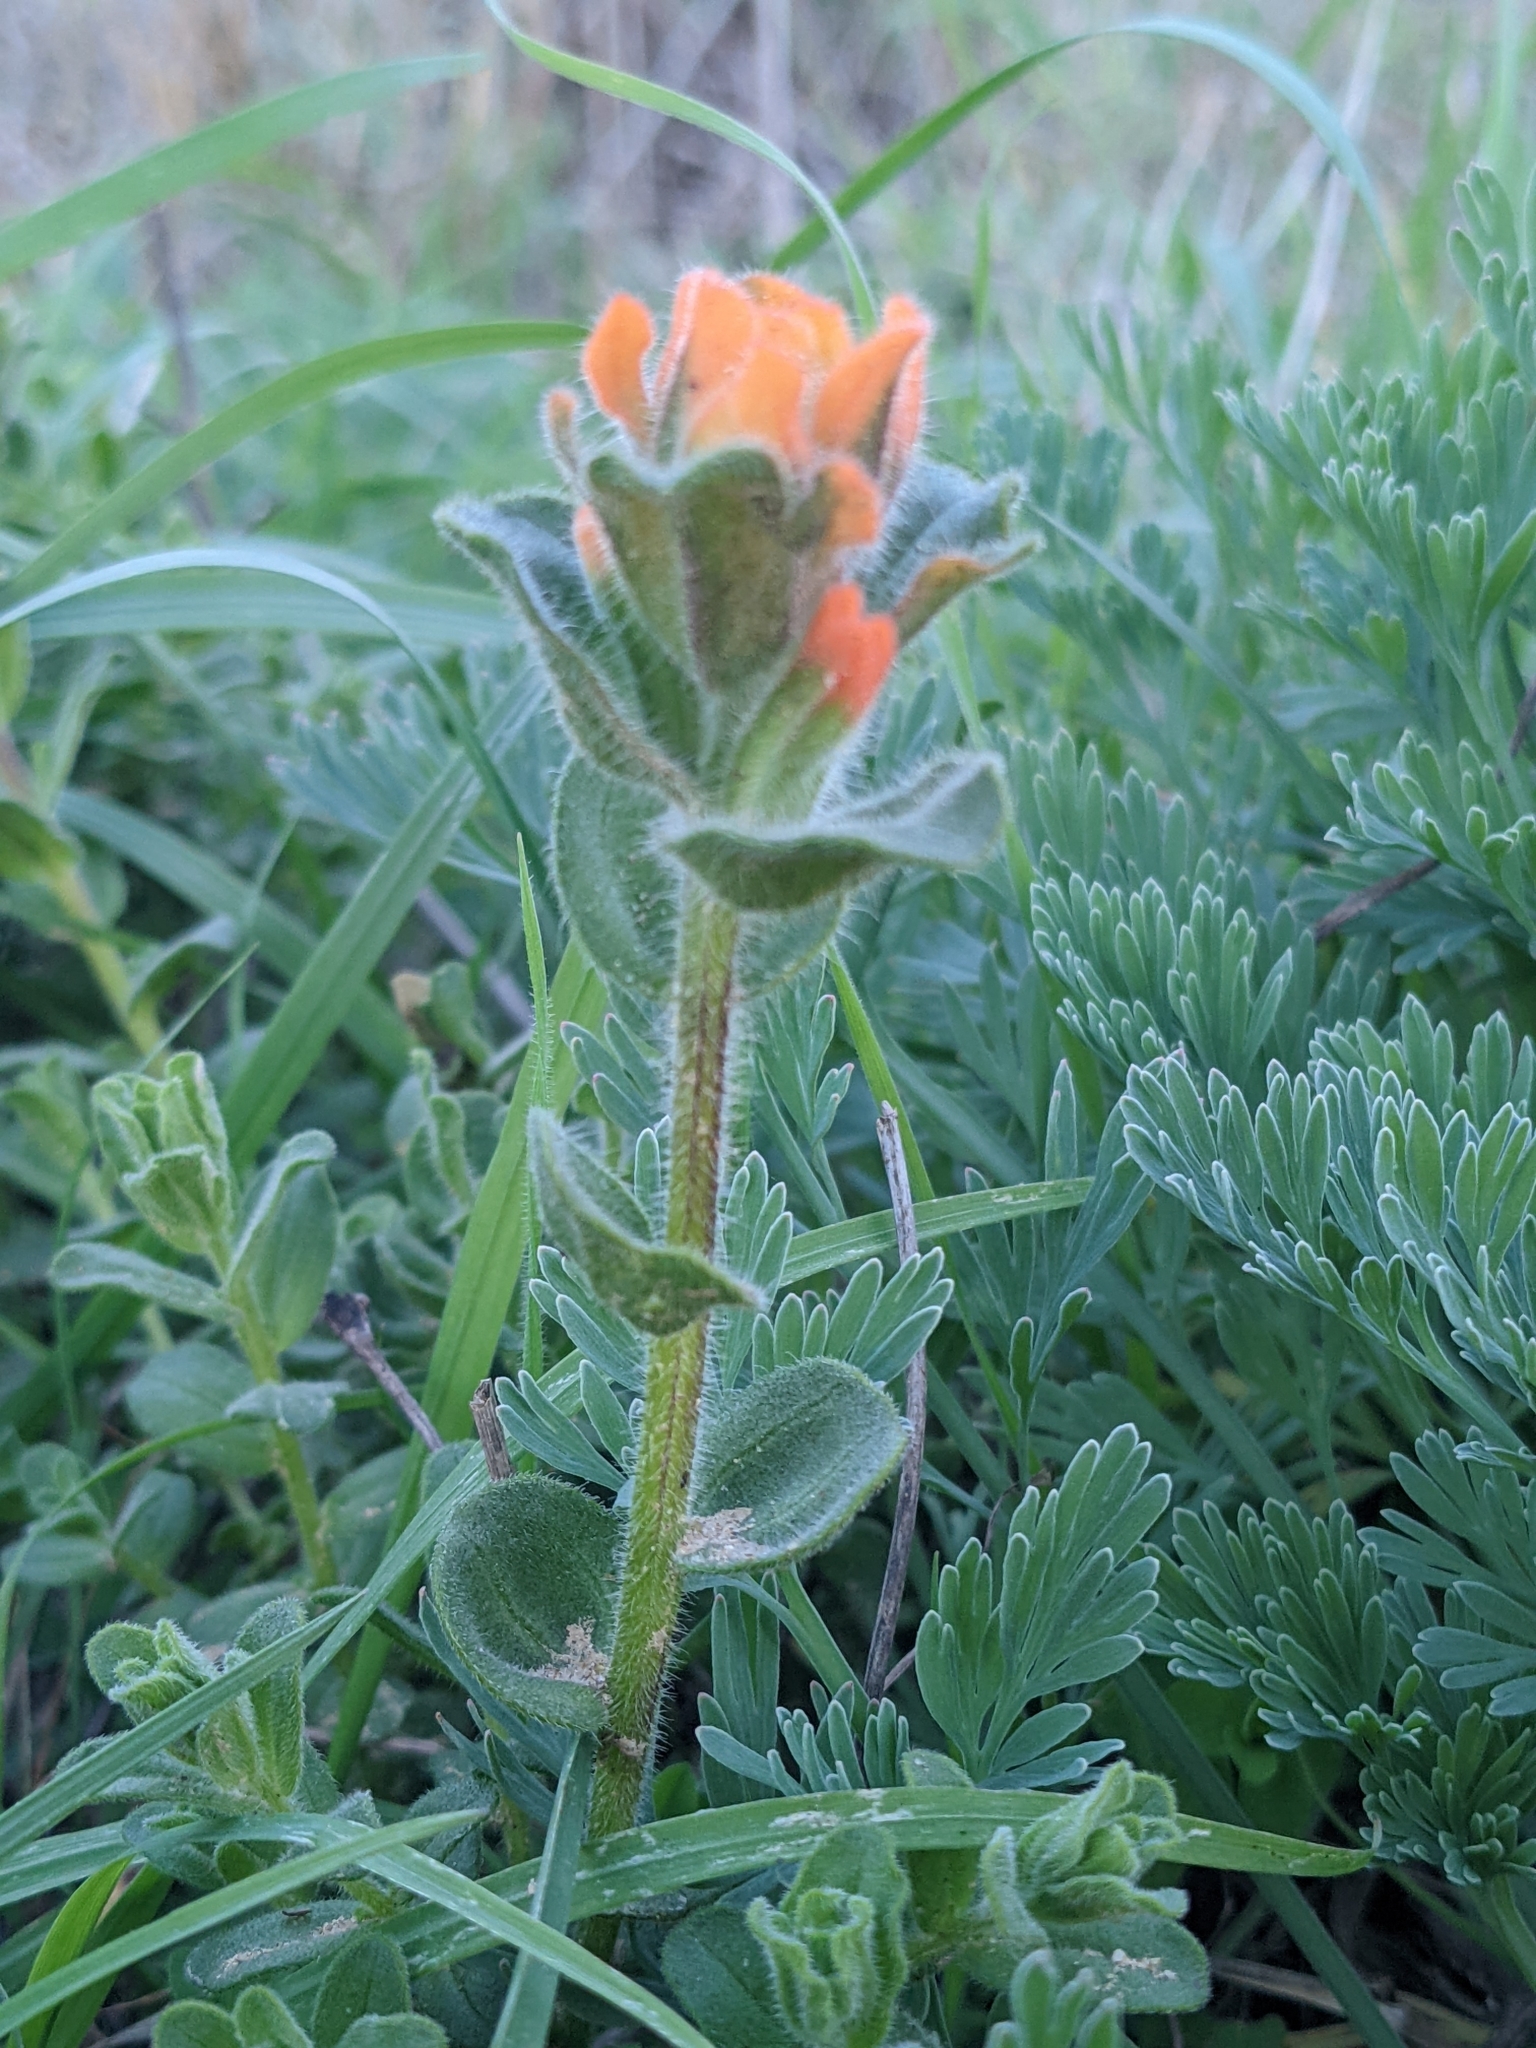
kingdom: Plantae
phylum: Tracheophyta
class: Magnoliopsida
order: Lamiales
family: Orobanchaceae
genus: Castilleja
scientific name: Castilleja latifolia
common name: Monterey indian paintbrush
